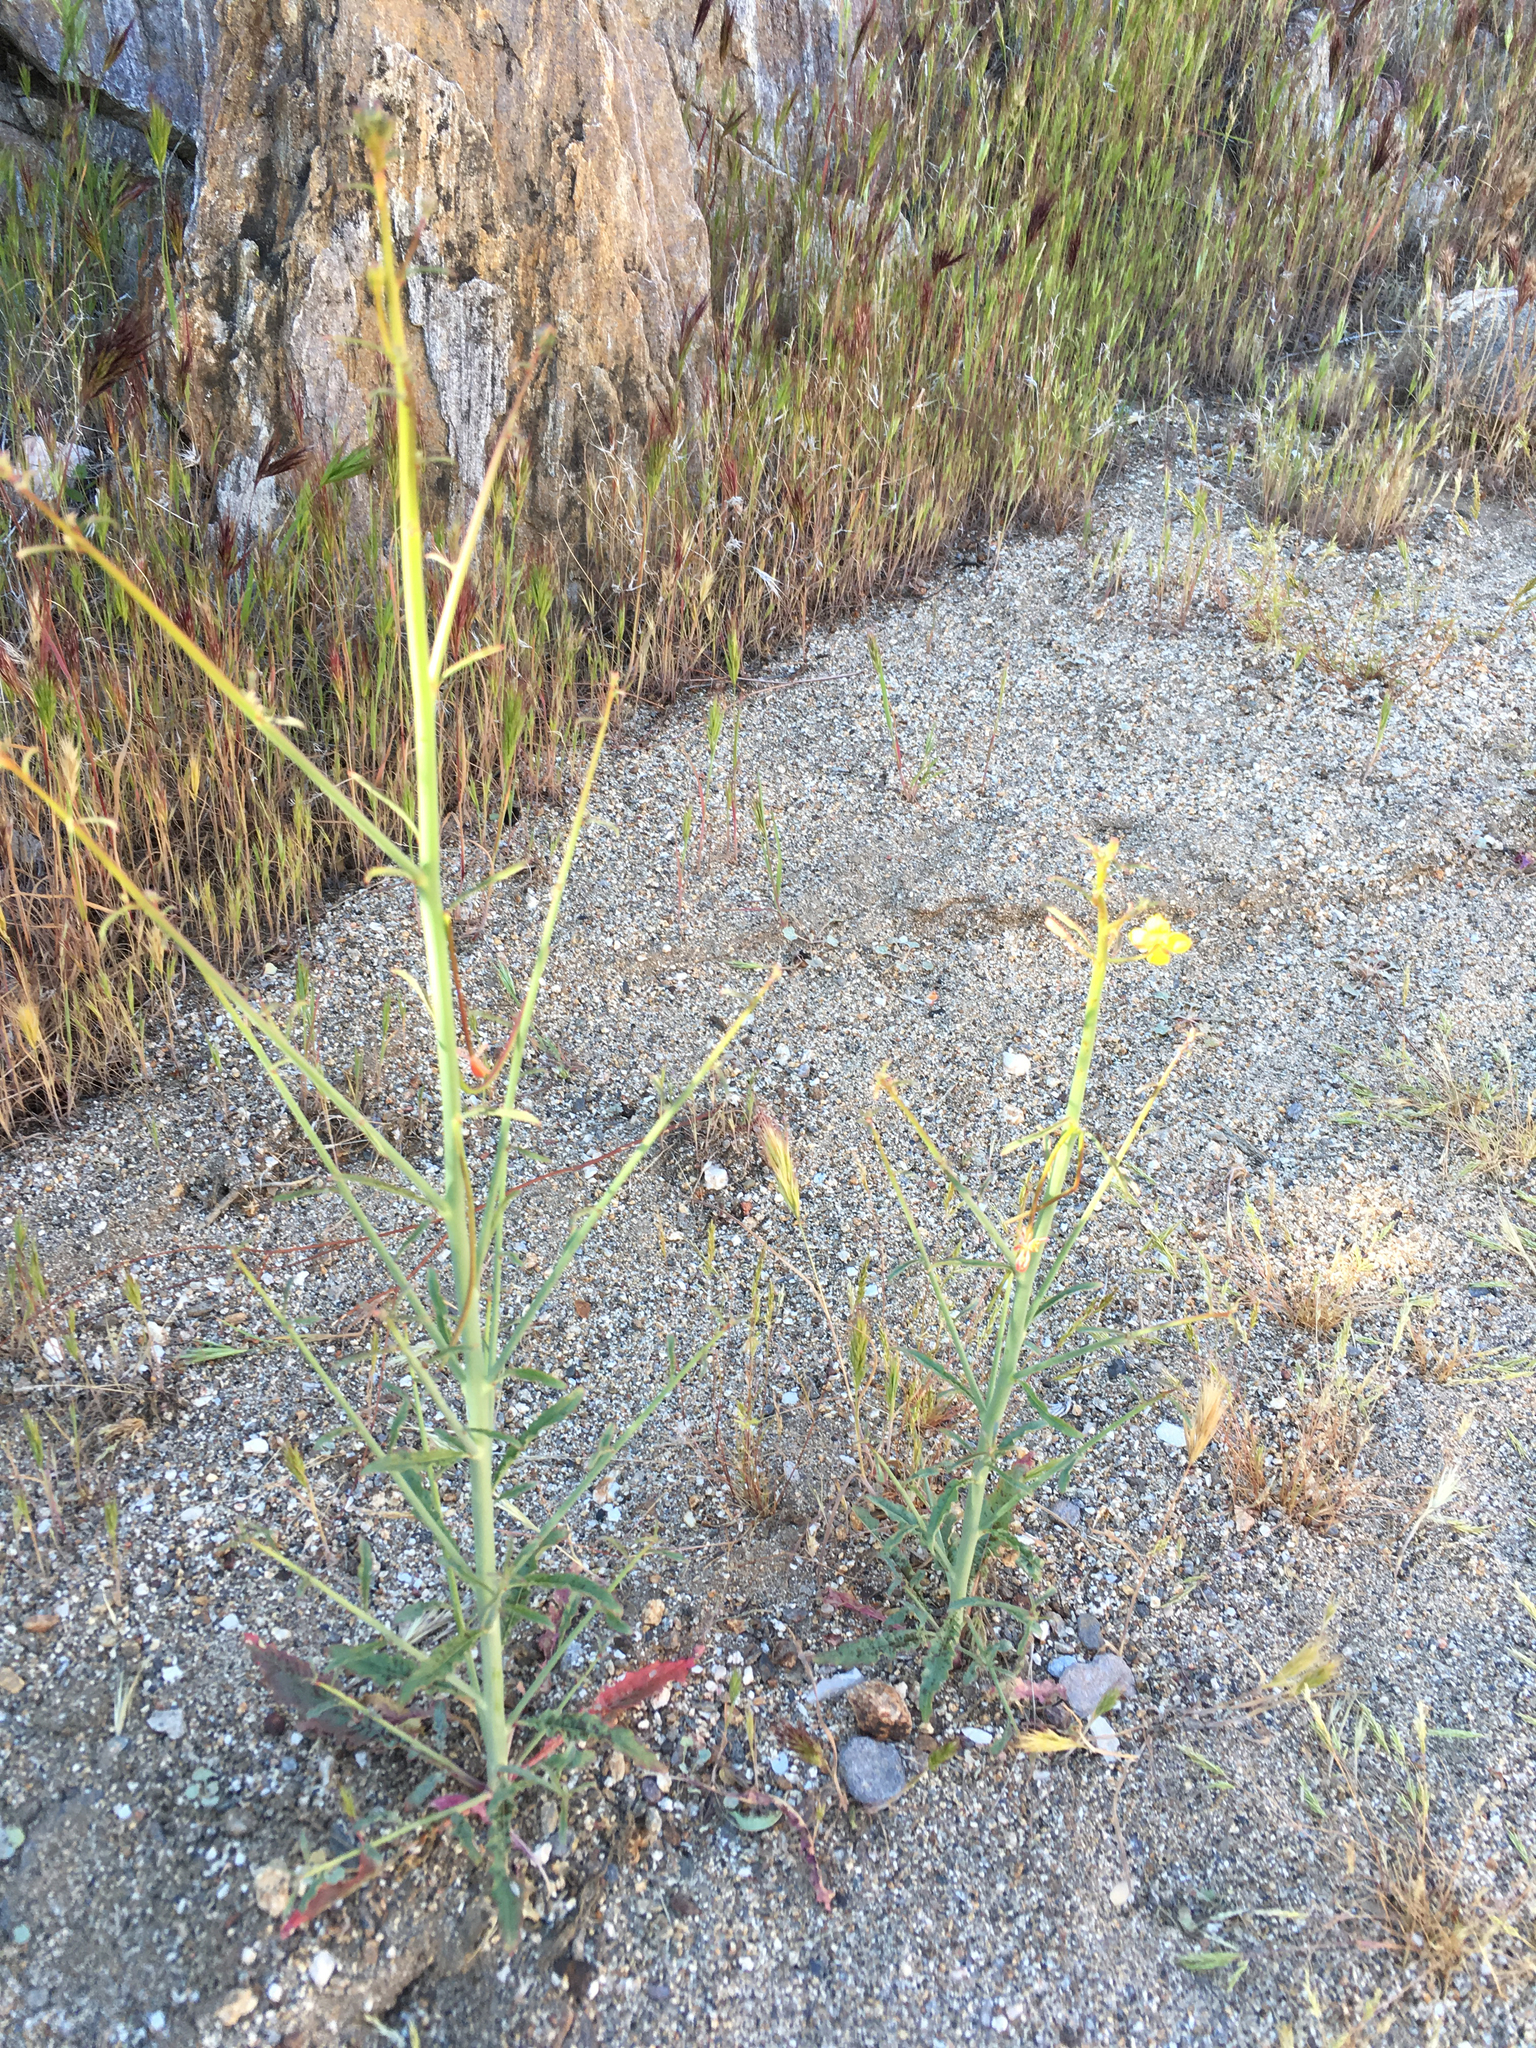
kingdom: Plantae
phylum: Tracheophyta
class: Magnoliopsida
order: Myrtales
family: Onagraceae
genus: Eulobus
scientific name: Eulobus californicus
